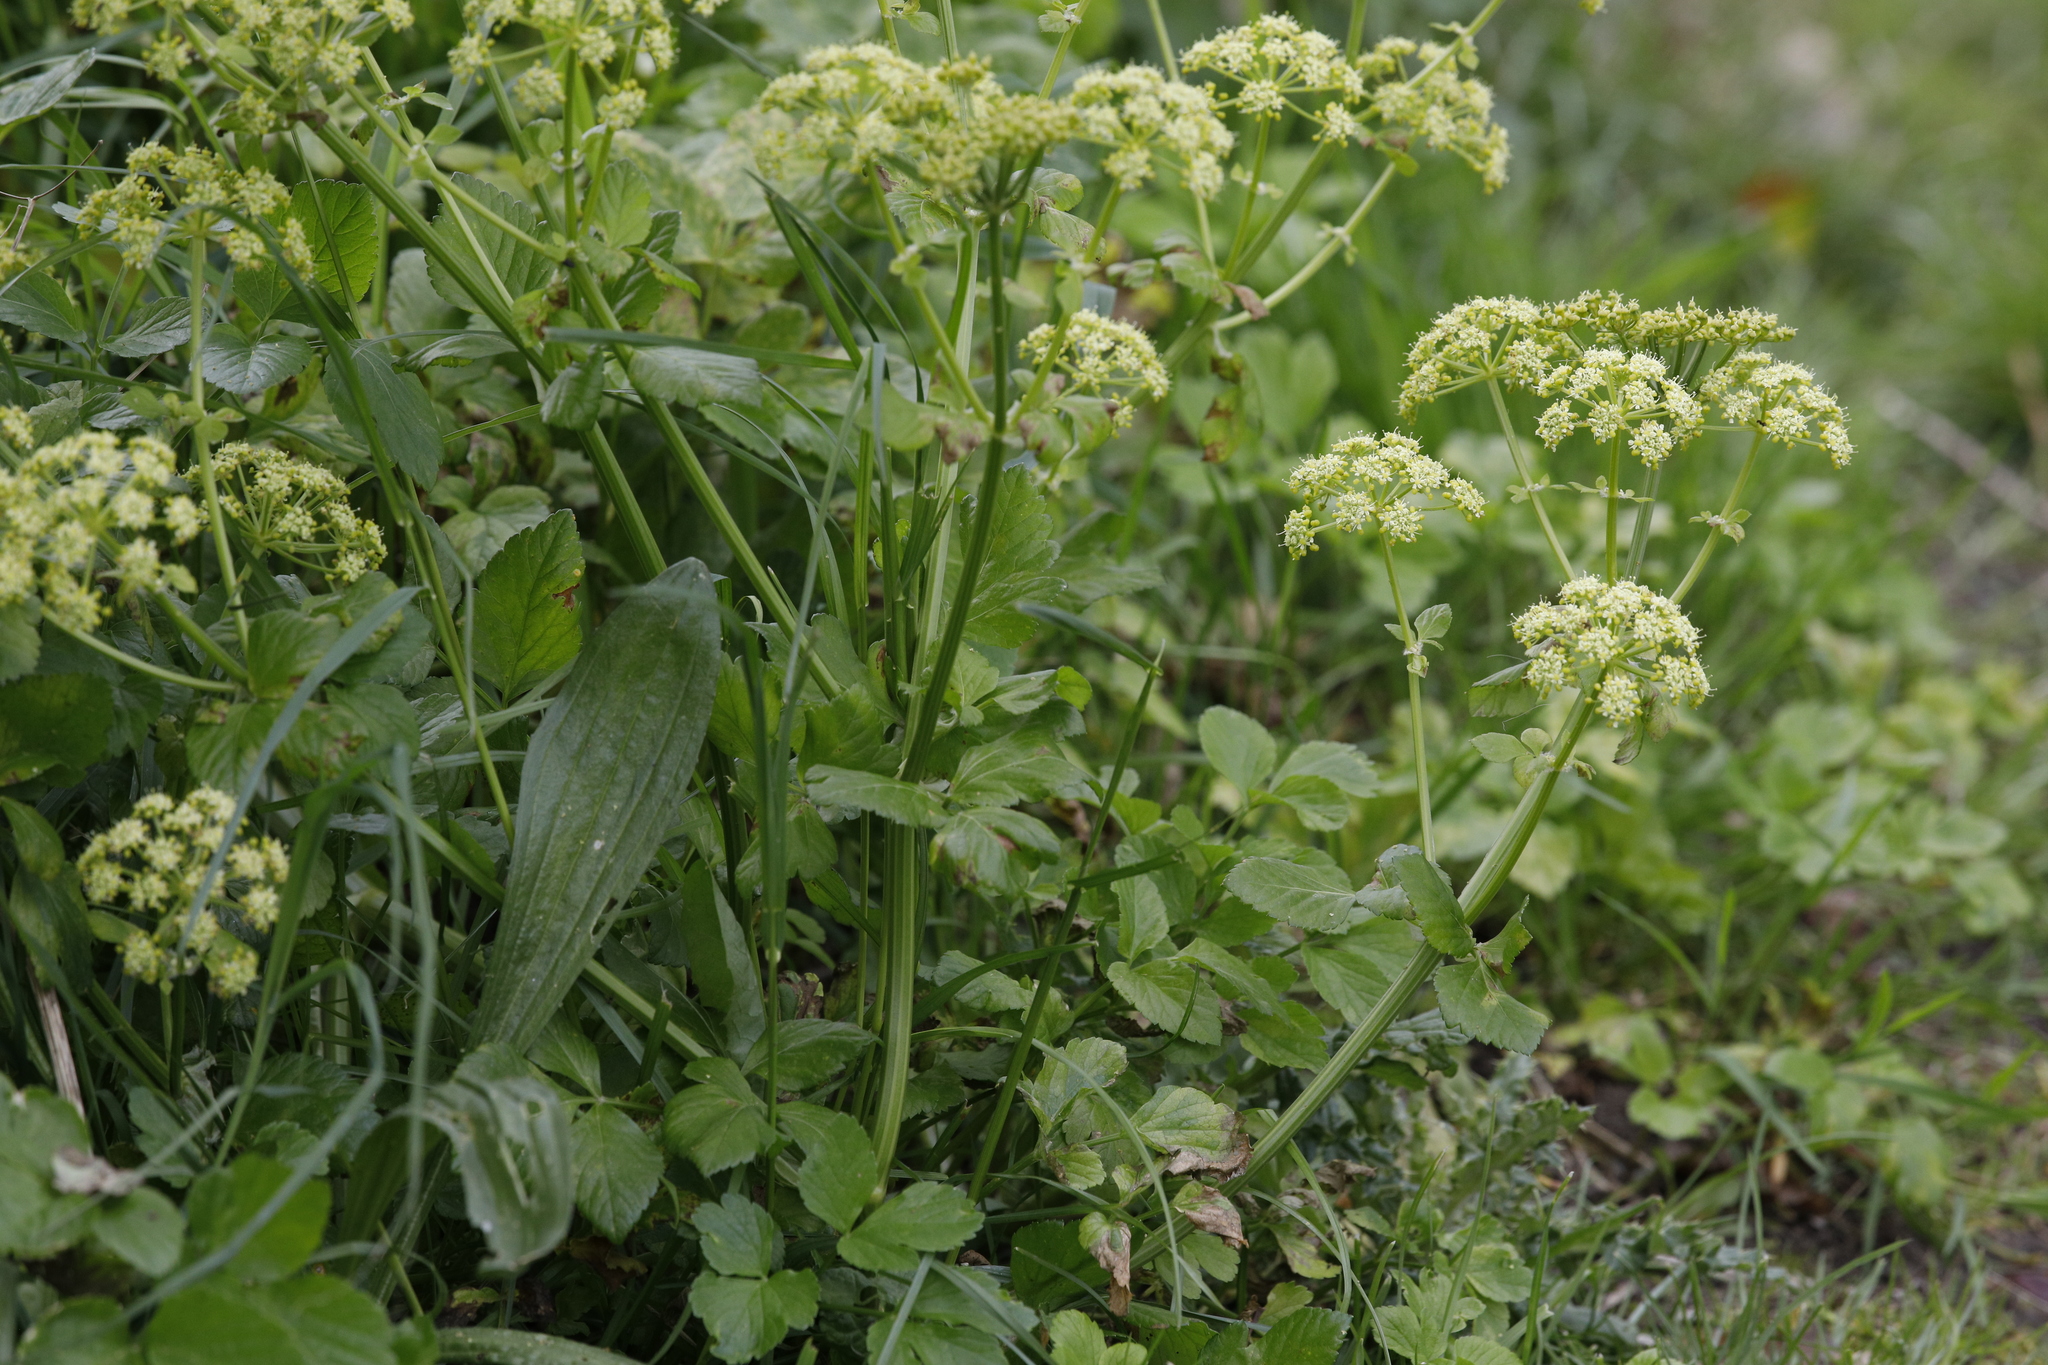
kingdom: Plantae
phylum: Tracheophyta
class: Magnoliopsida
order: Apiales
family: Apiaceae
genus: Smyrnium
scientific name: Smyrnium olusatrum
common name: Alexanders
